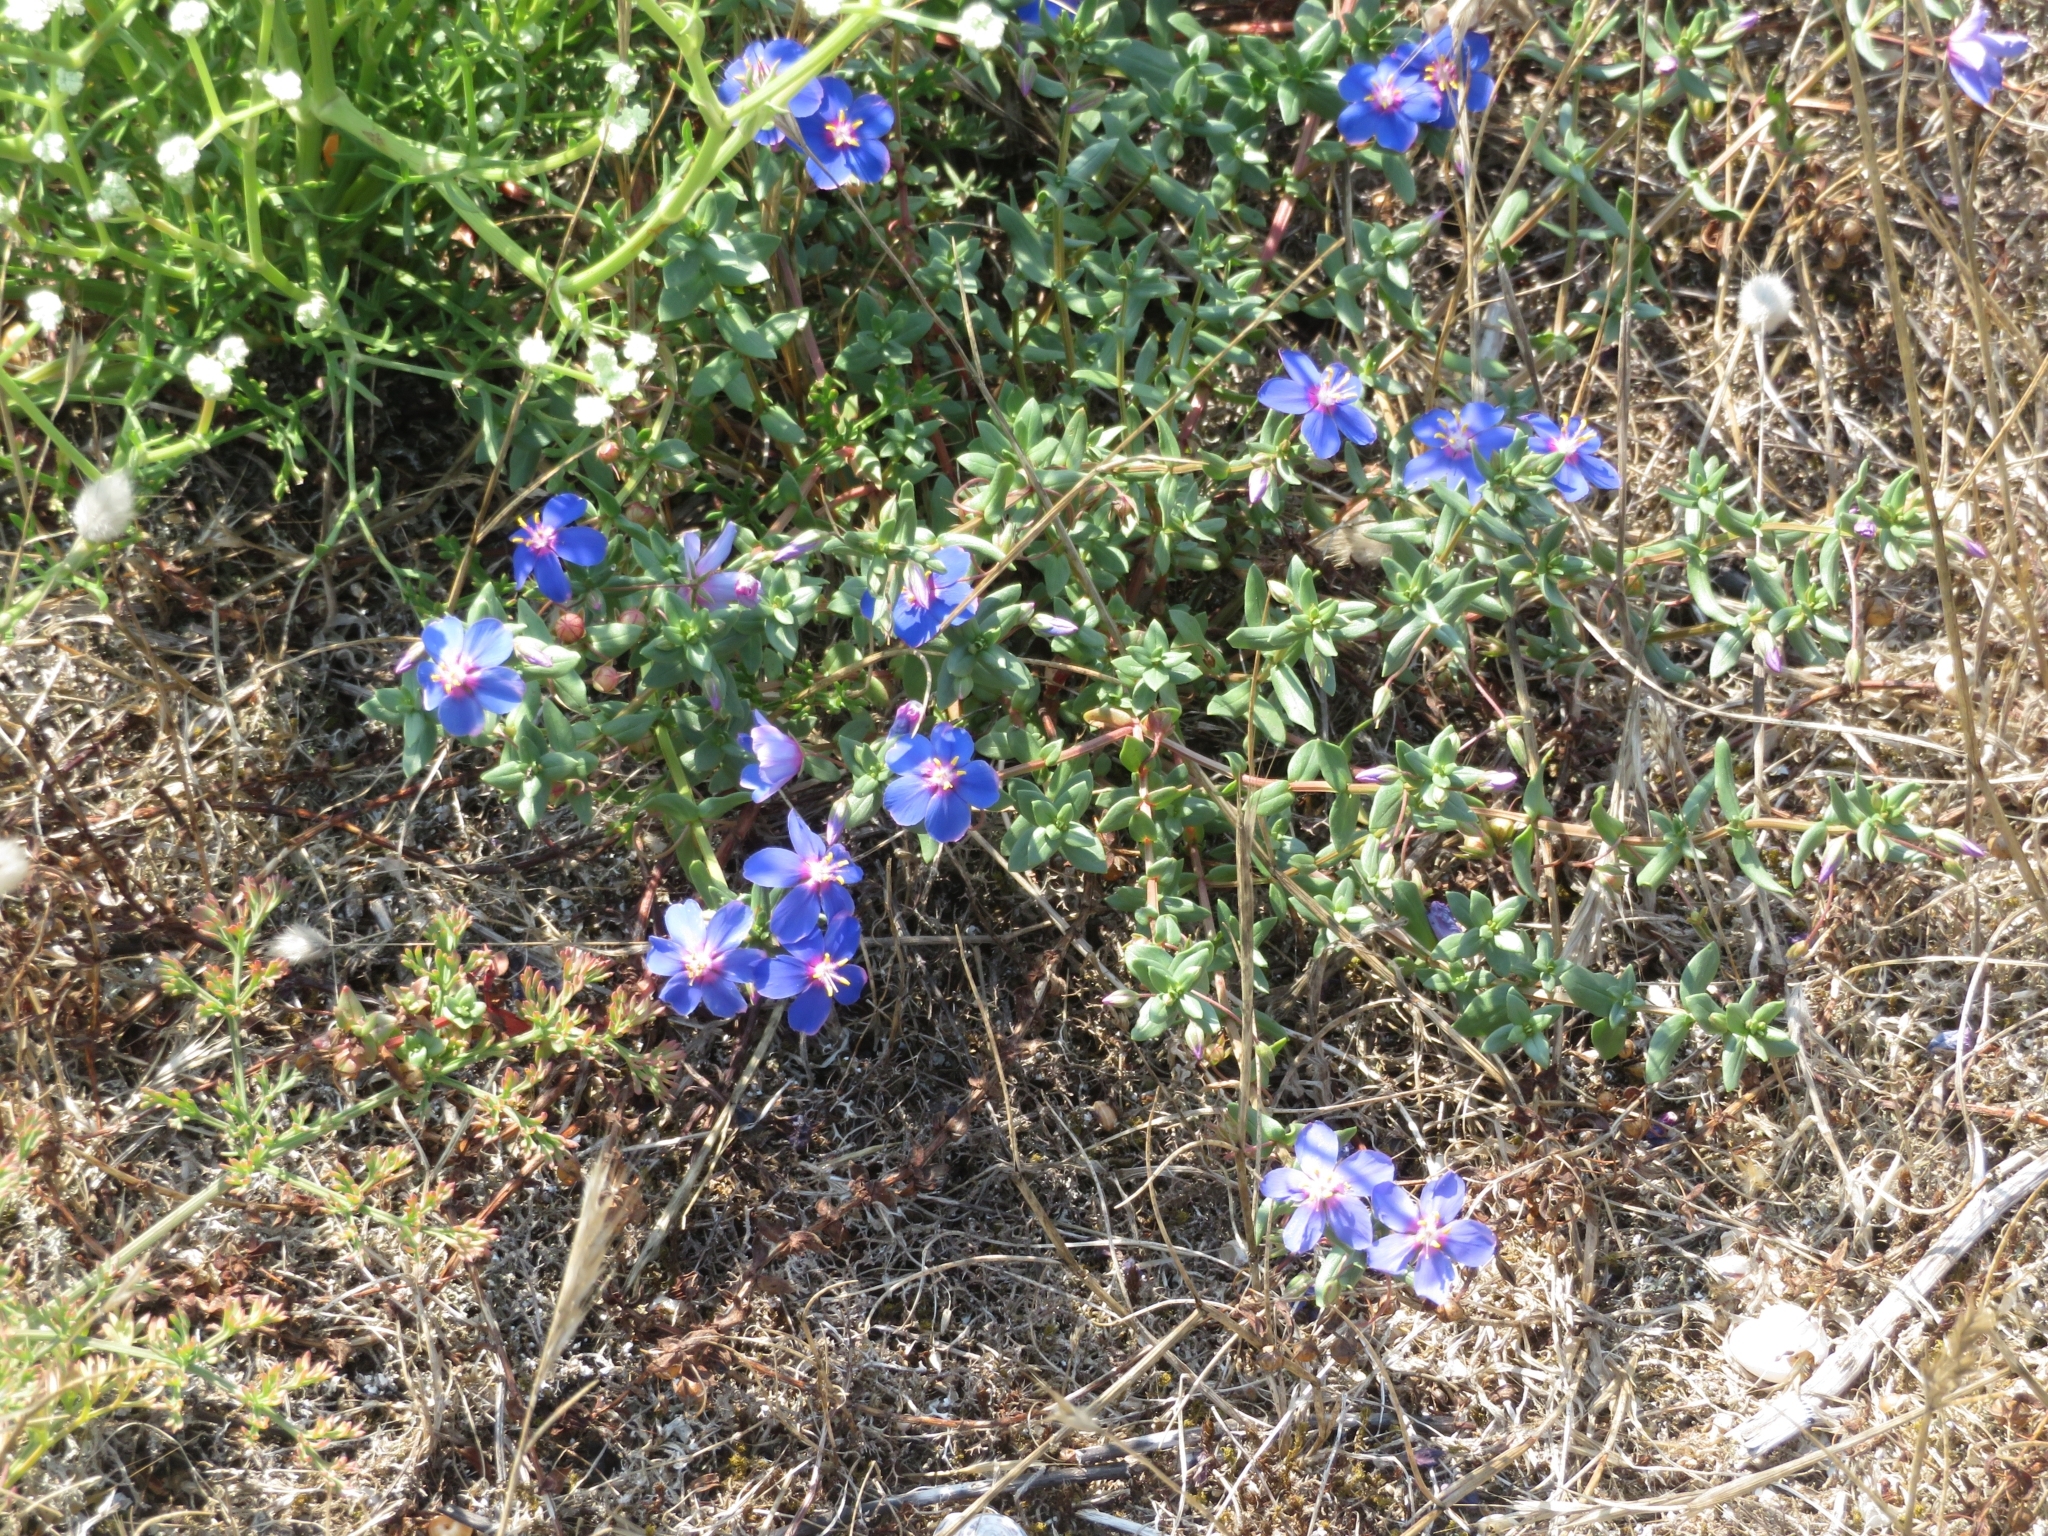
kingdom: Plantae
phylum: Tracheophyta
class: Magnoliopsida
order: Ericales
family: Primulaceae
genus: Lysimachia
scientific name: Lysimachia monelli
